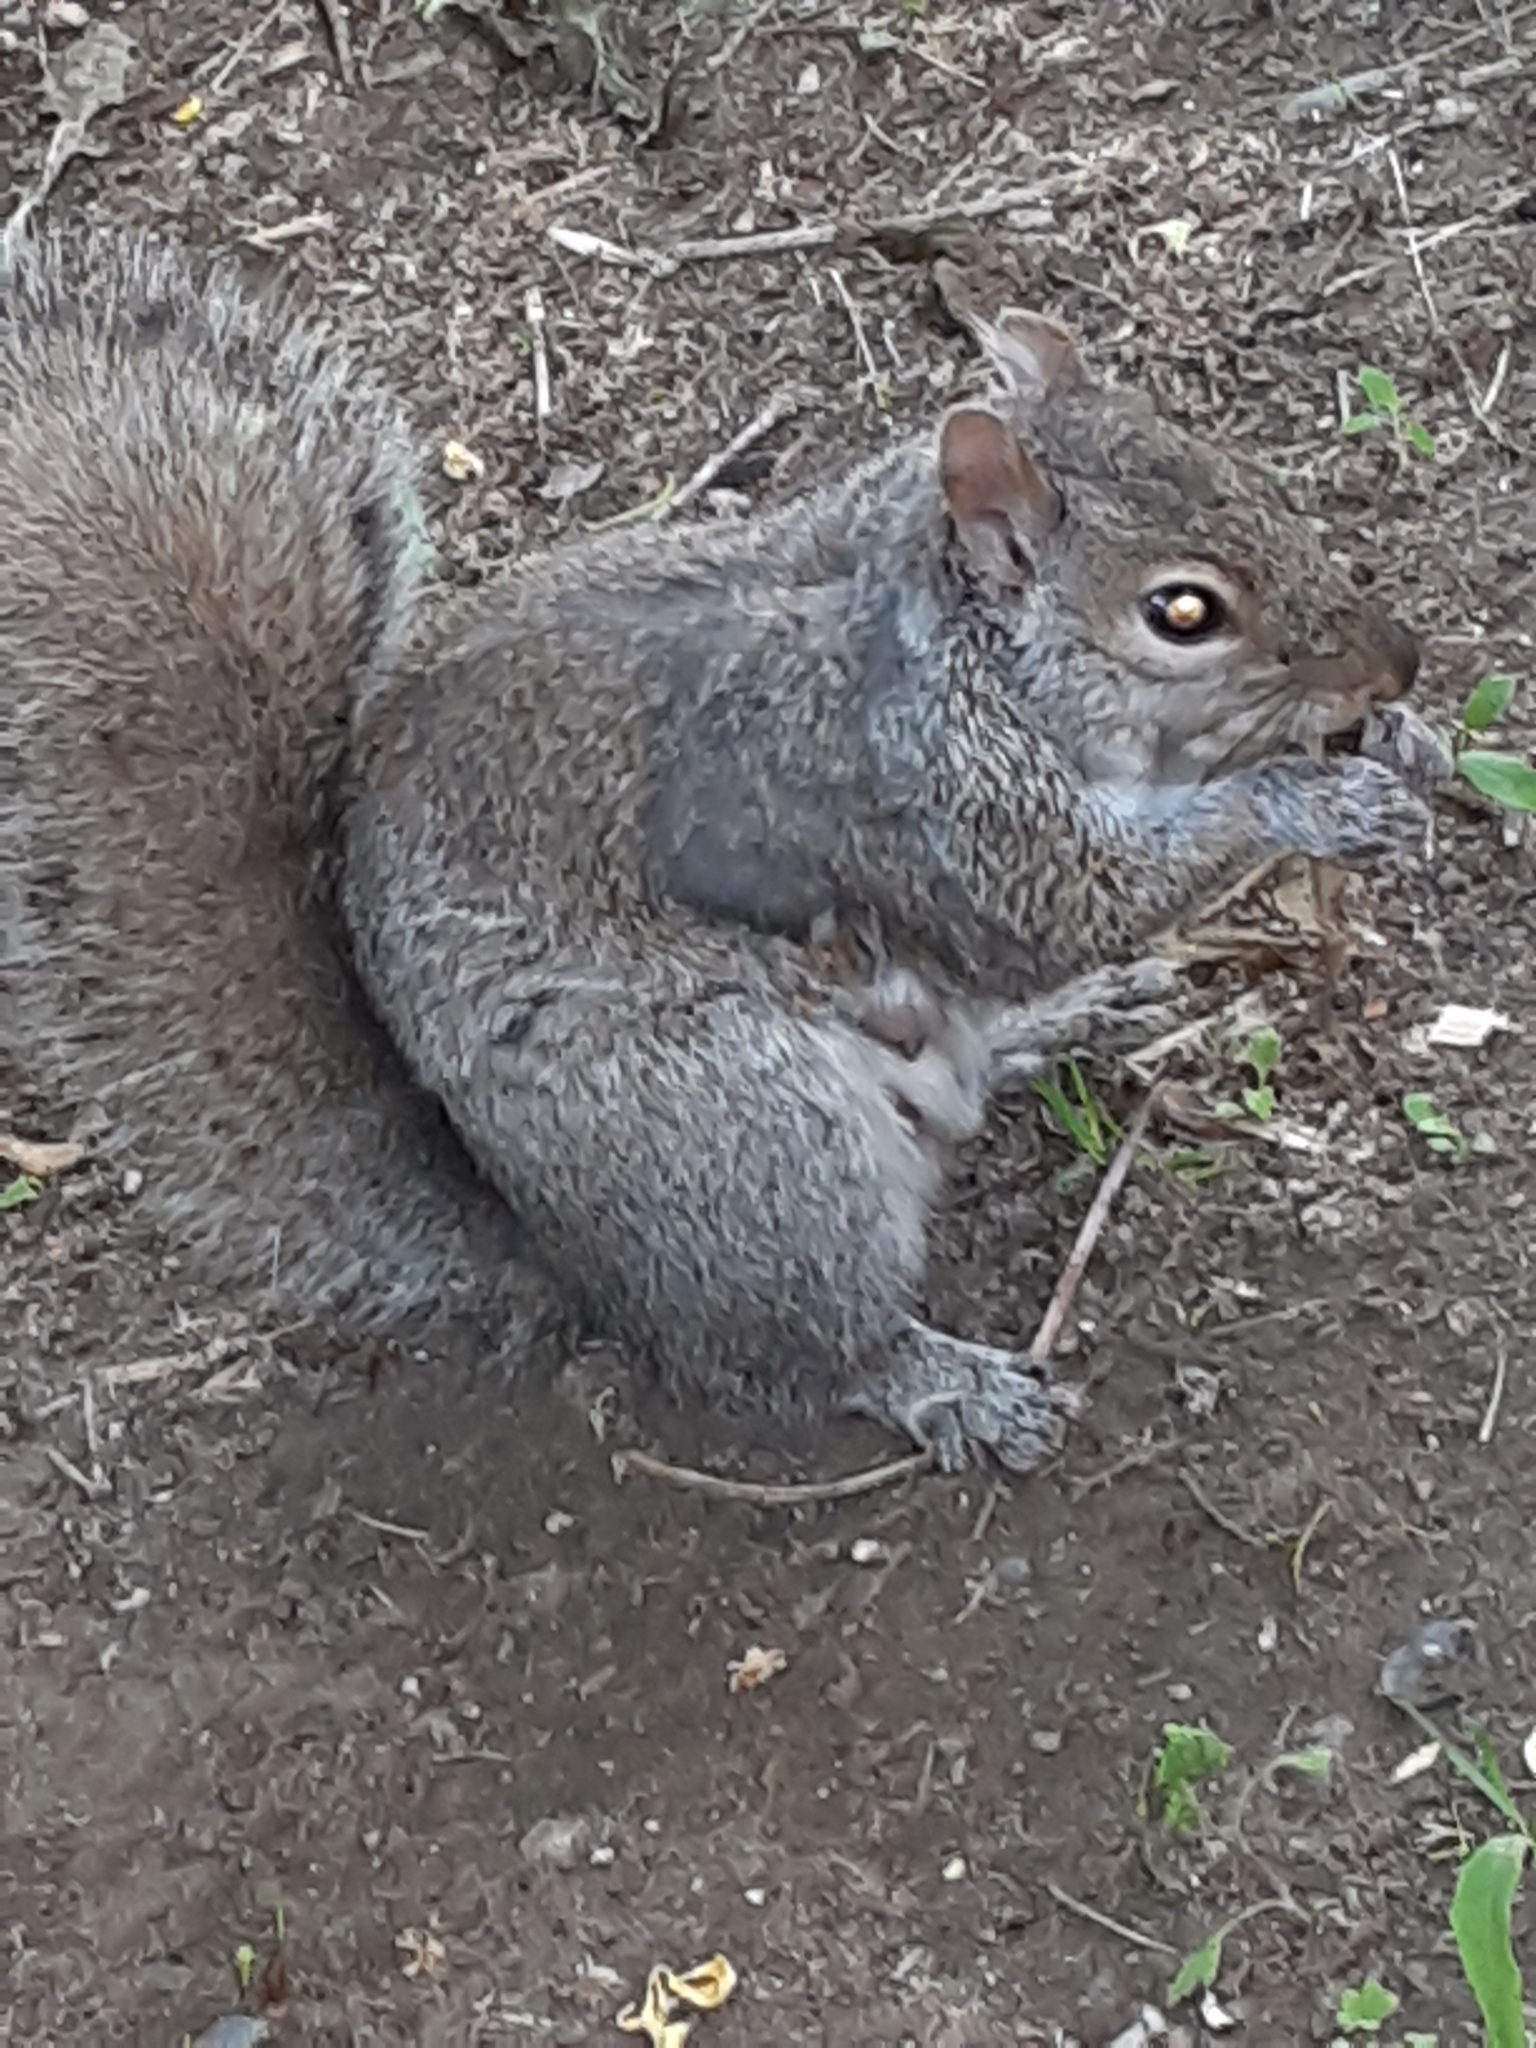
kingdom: Animalia
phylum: Chordata
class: Mammalia
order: Rodentia
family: Sciuridae
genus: Sciurus
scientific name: Sciurus carolinensis
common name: Eastern gray squirrel
